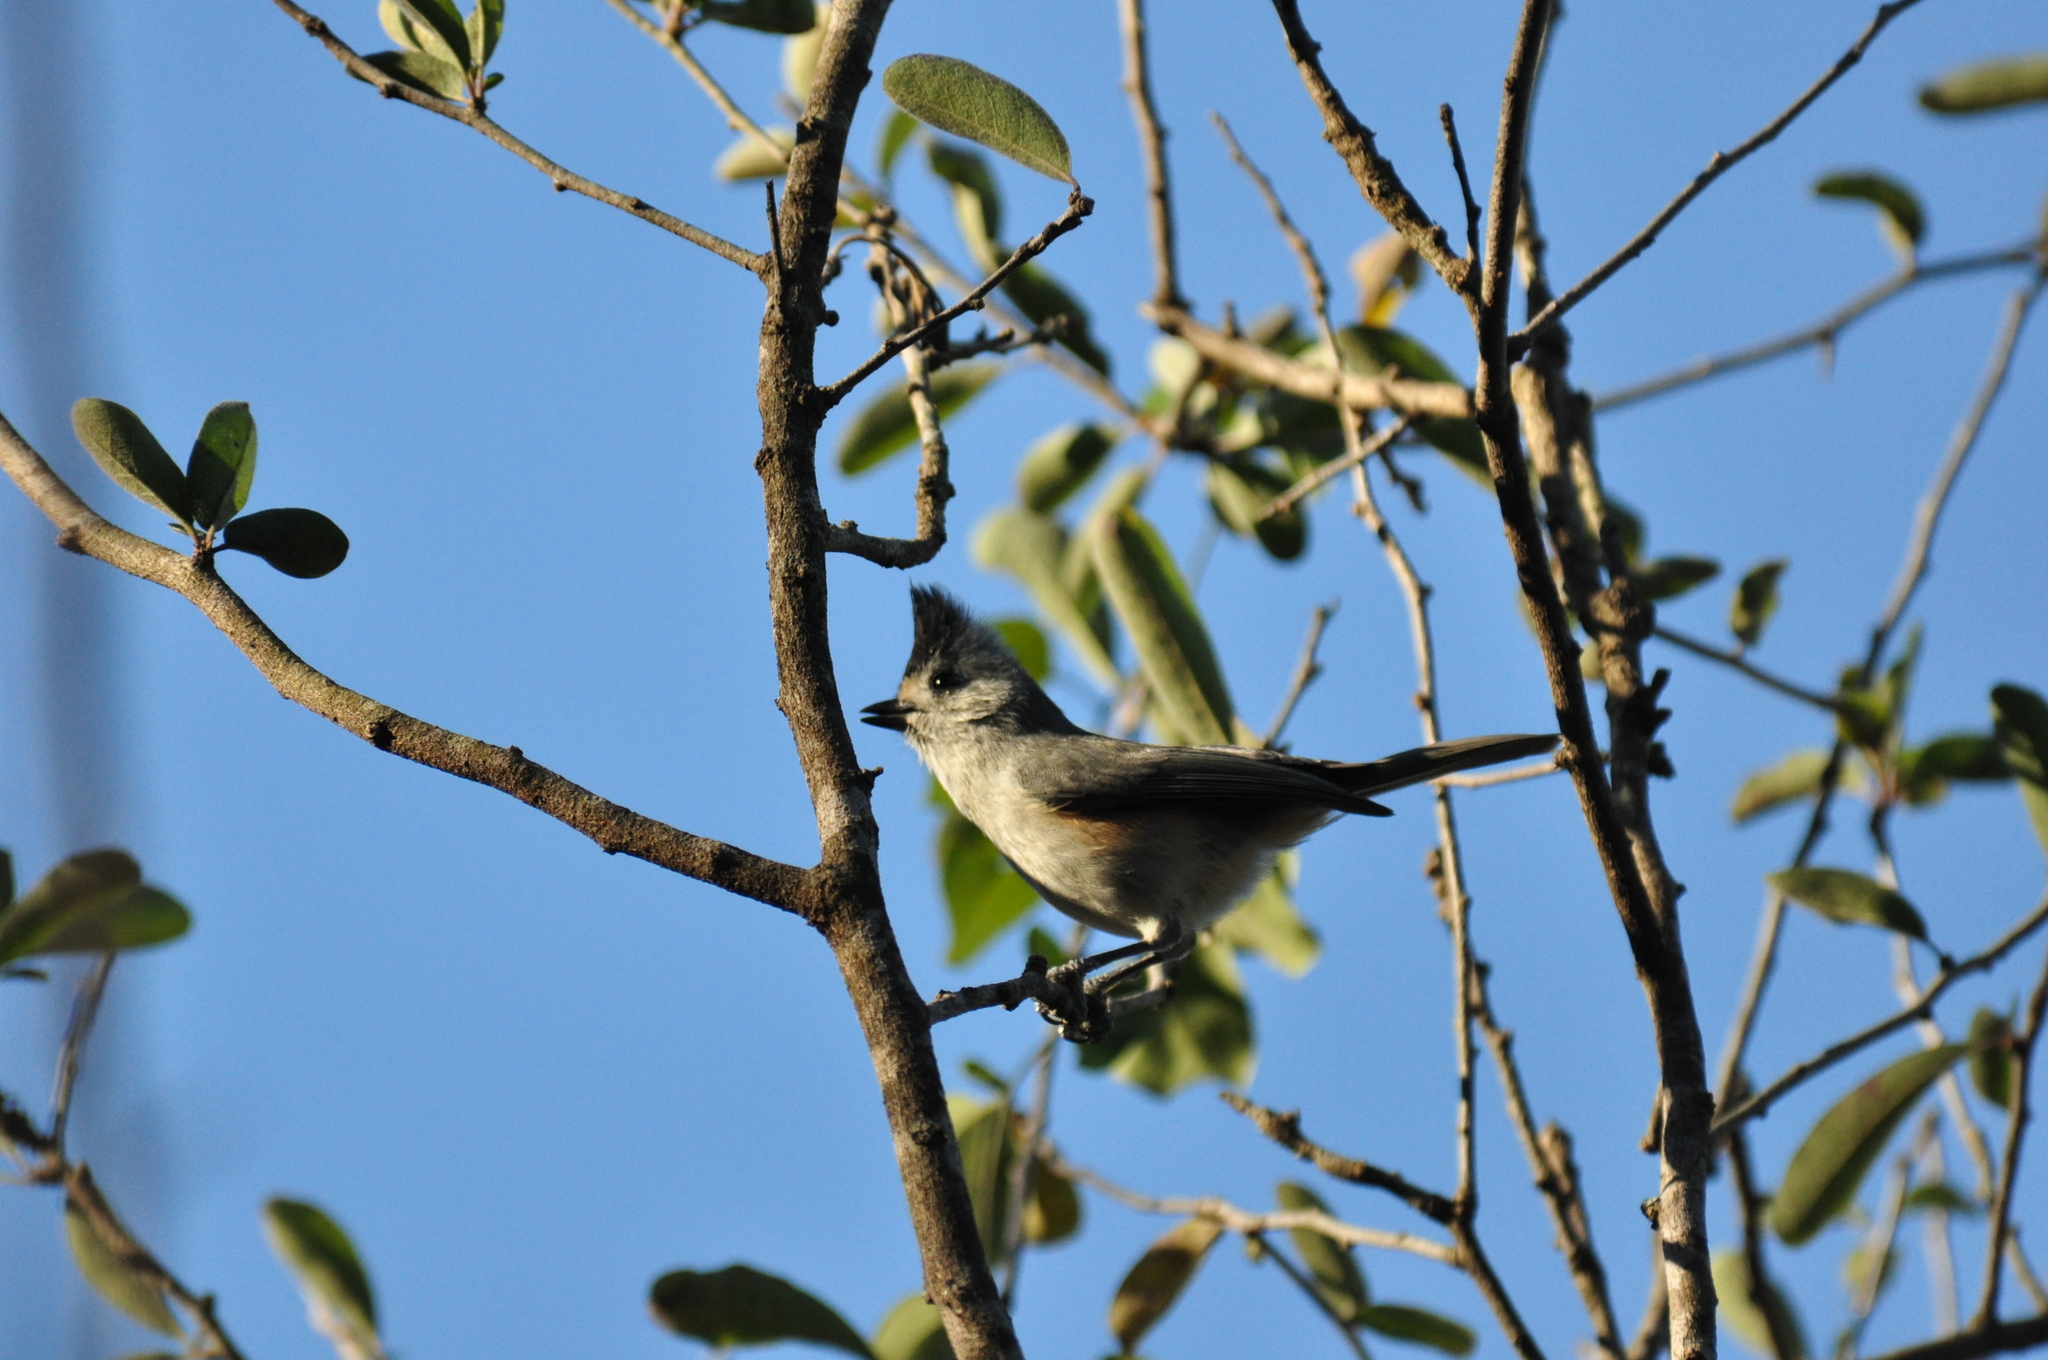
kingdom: Animalia
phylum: Chordata
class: Aves
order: Passeriformes
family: Paridae
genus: Baeolophus
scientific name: Baeolophus atricristatus
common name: Black-crested titmouse
